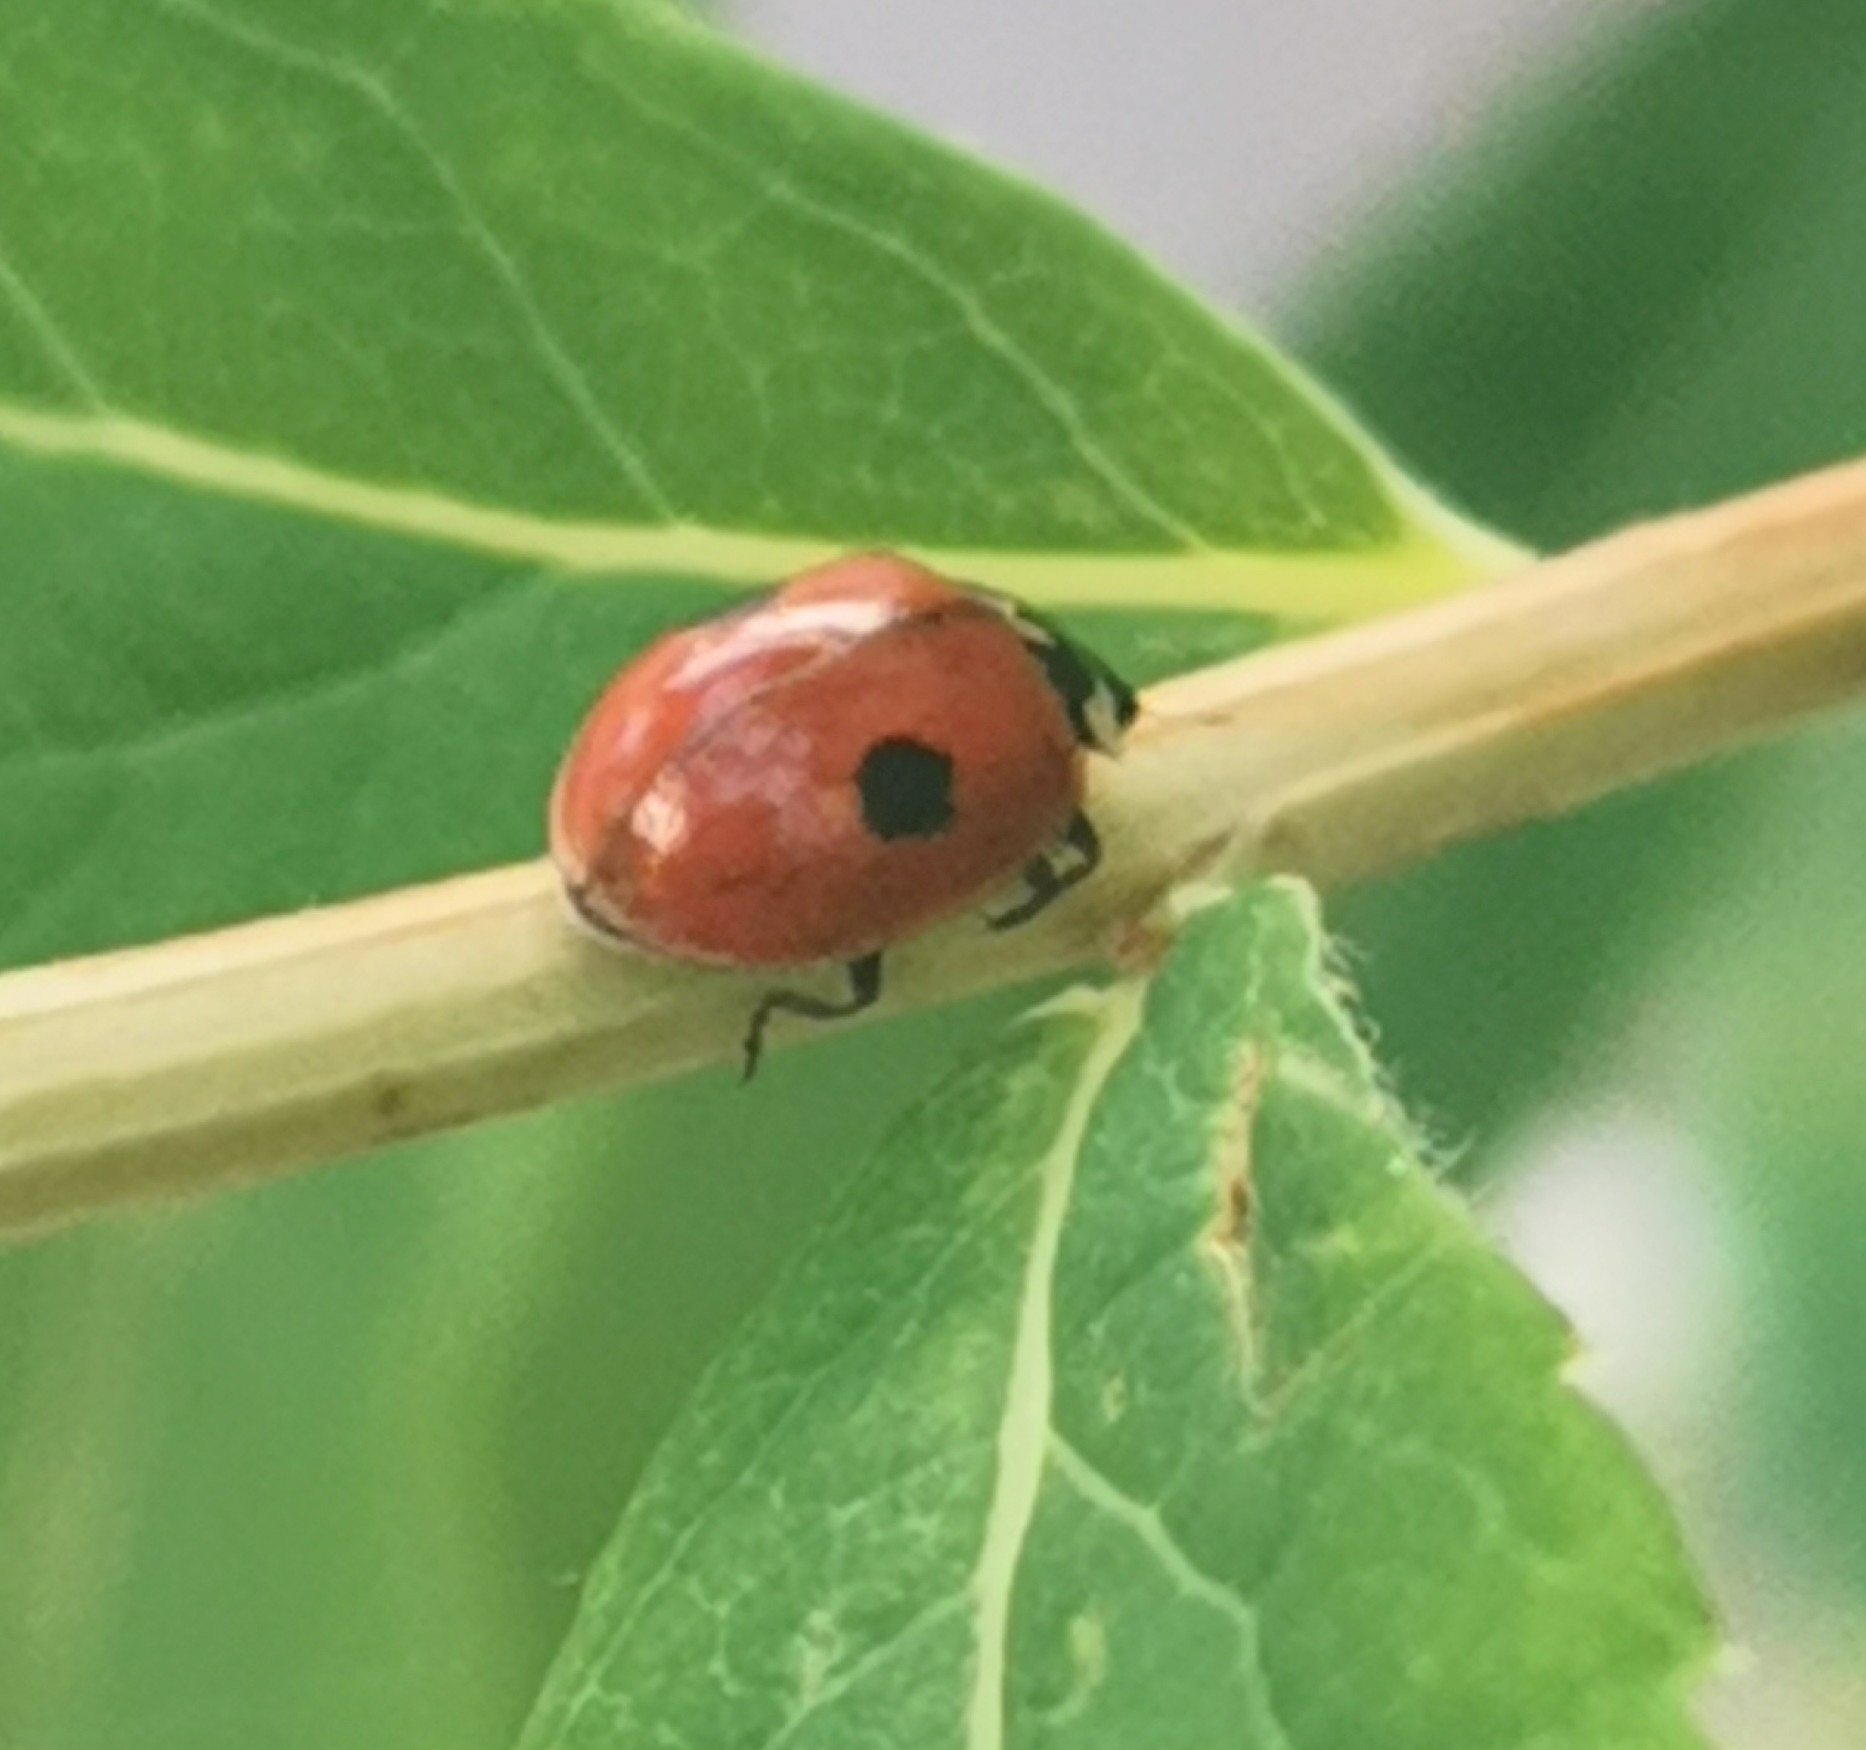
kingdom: Animalia
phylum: Arthropoda
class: Insecta
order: Coleoptera
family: Coccinellidae
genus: Adalia
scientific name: Adalia bipunctata
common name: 2-spot ladybird
